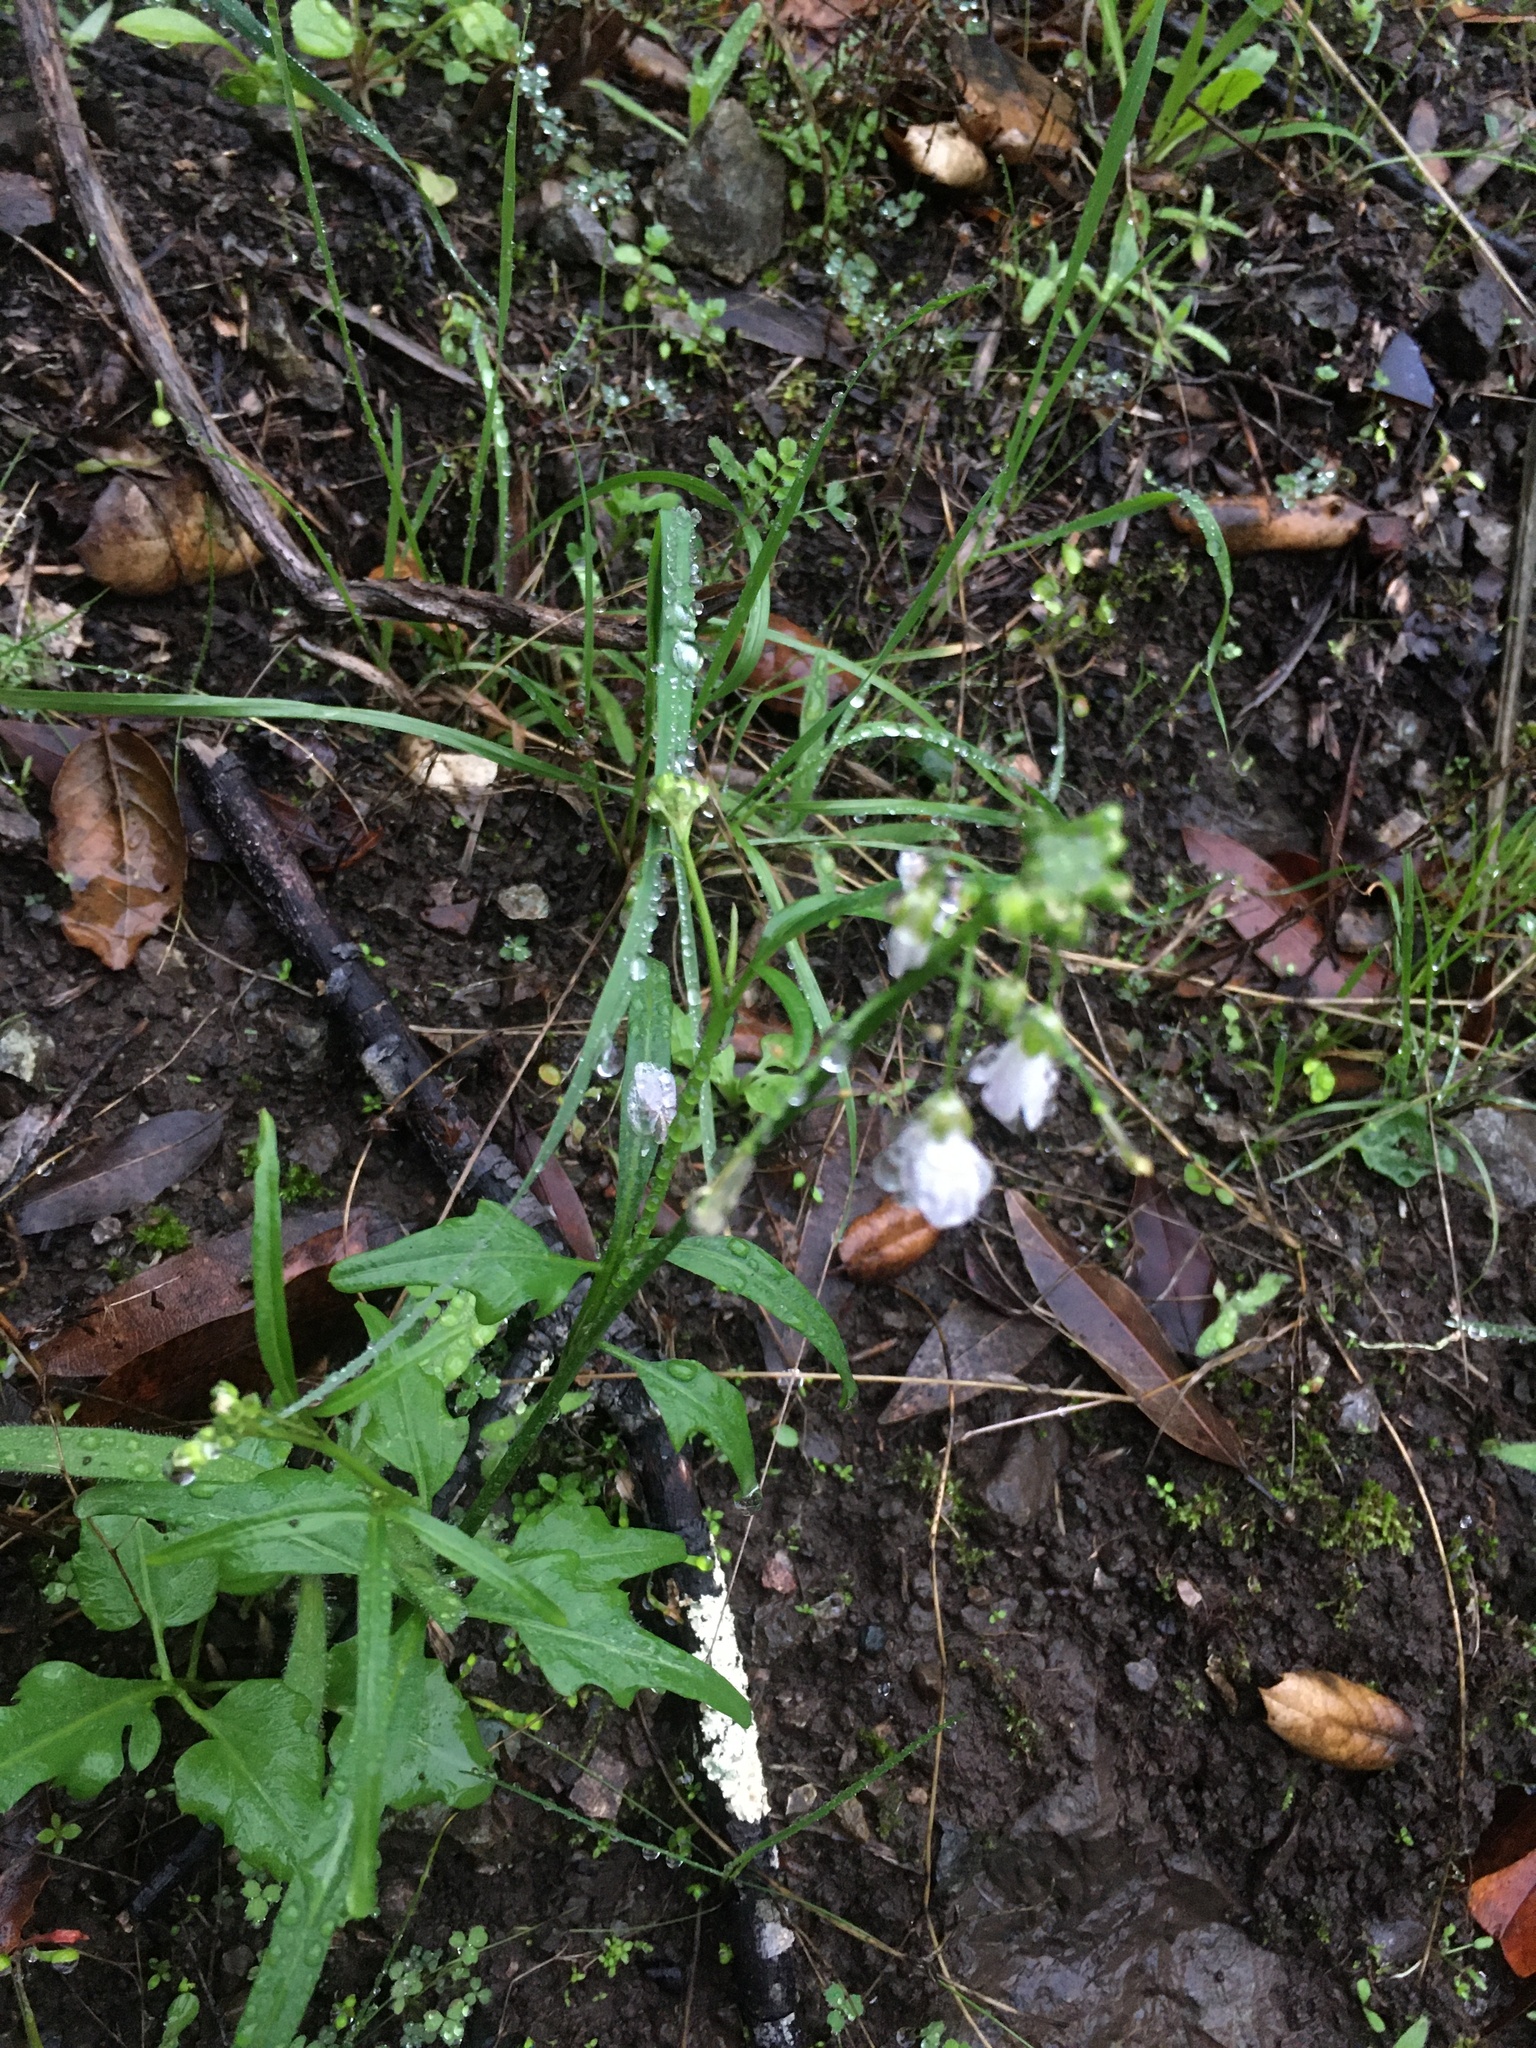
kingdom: Plantae
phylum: Tracheophyta
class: Magnoliopsida
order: Brassicales
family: Brassicaceae
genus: Cardamine
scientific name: Cardamine californica
